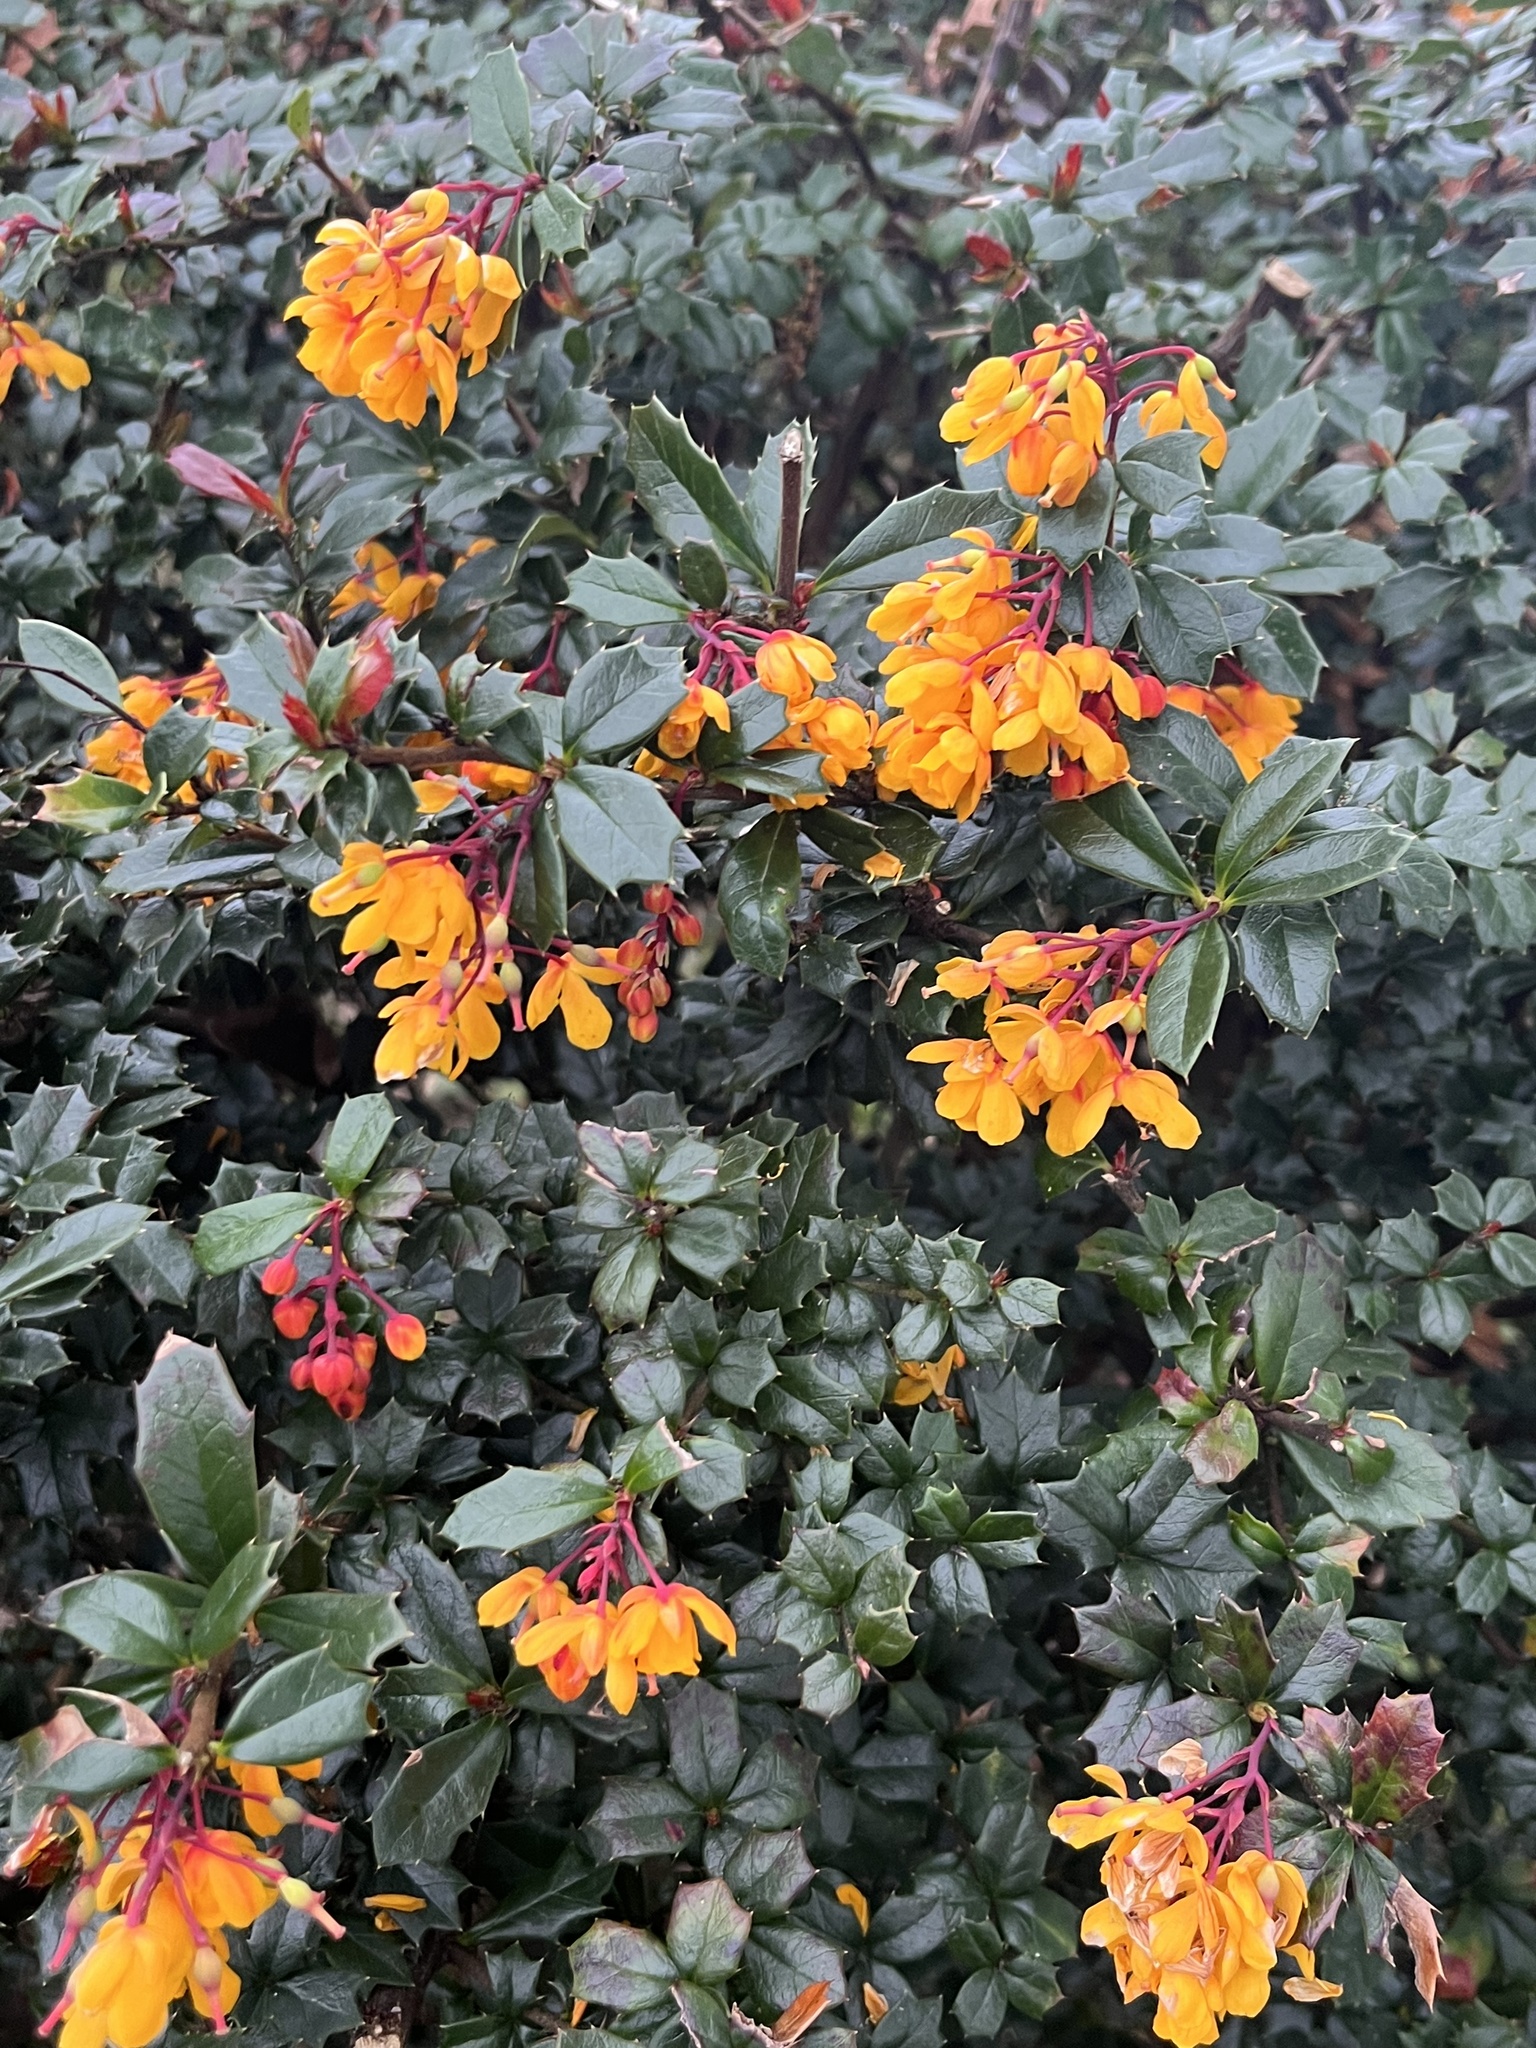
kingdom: Plantae
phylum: Tracheophyta
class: Magnoliopsida
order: Ranunculales
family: Berberidaceae
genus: Berberis
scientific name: Berberis darwinii
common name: Darwin's barberry
